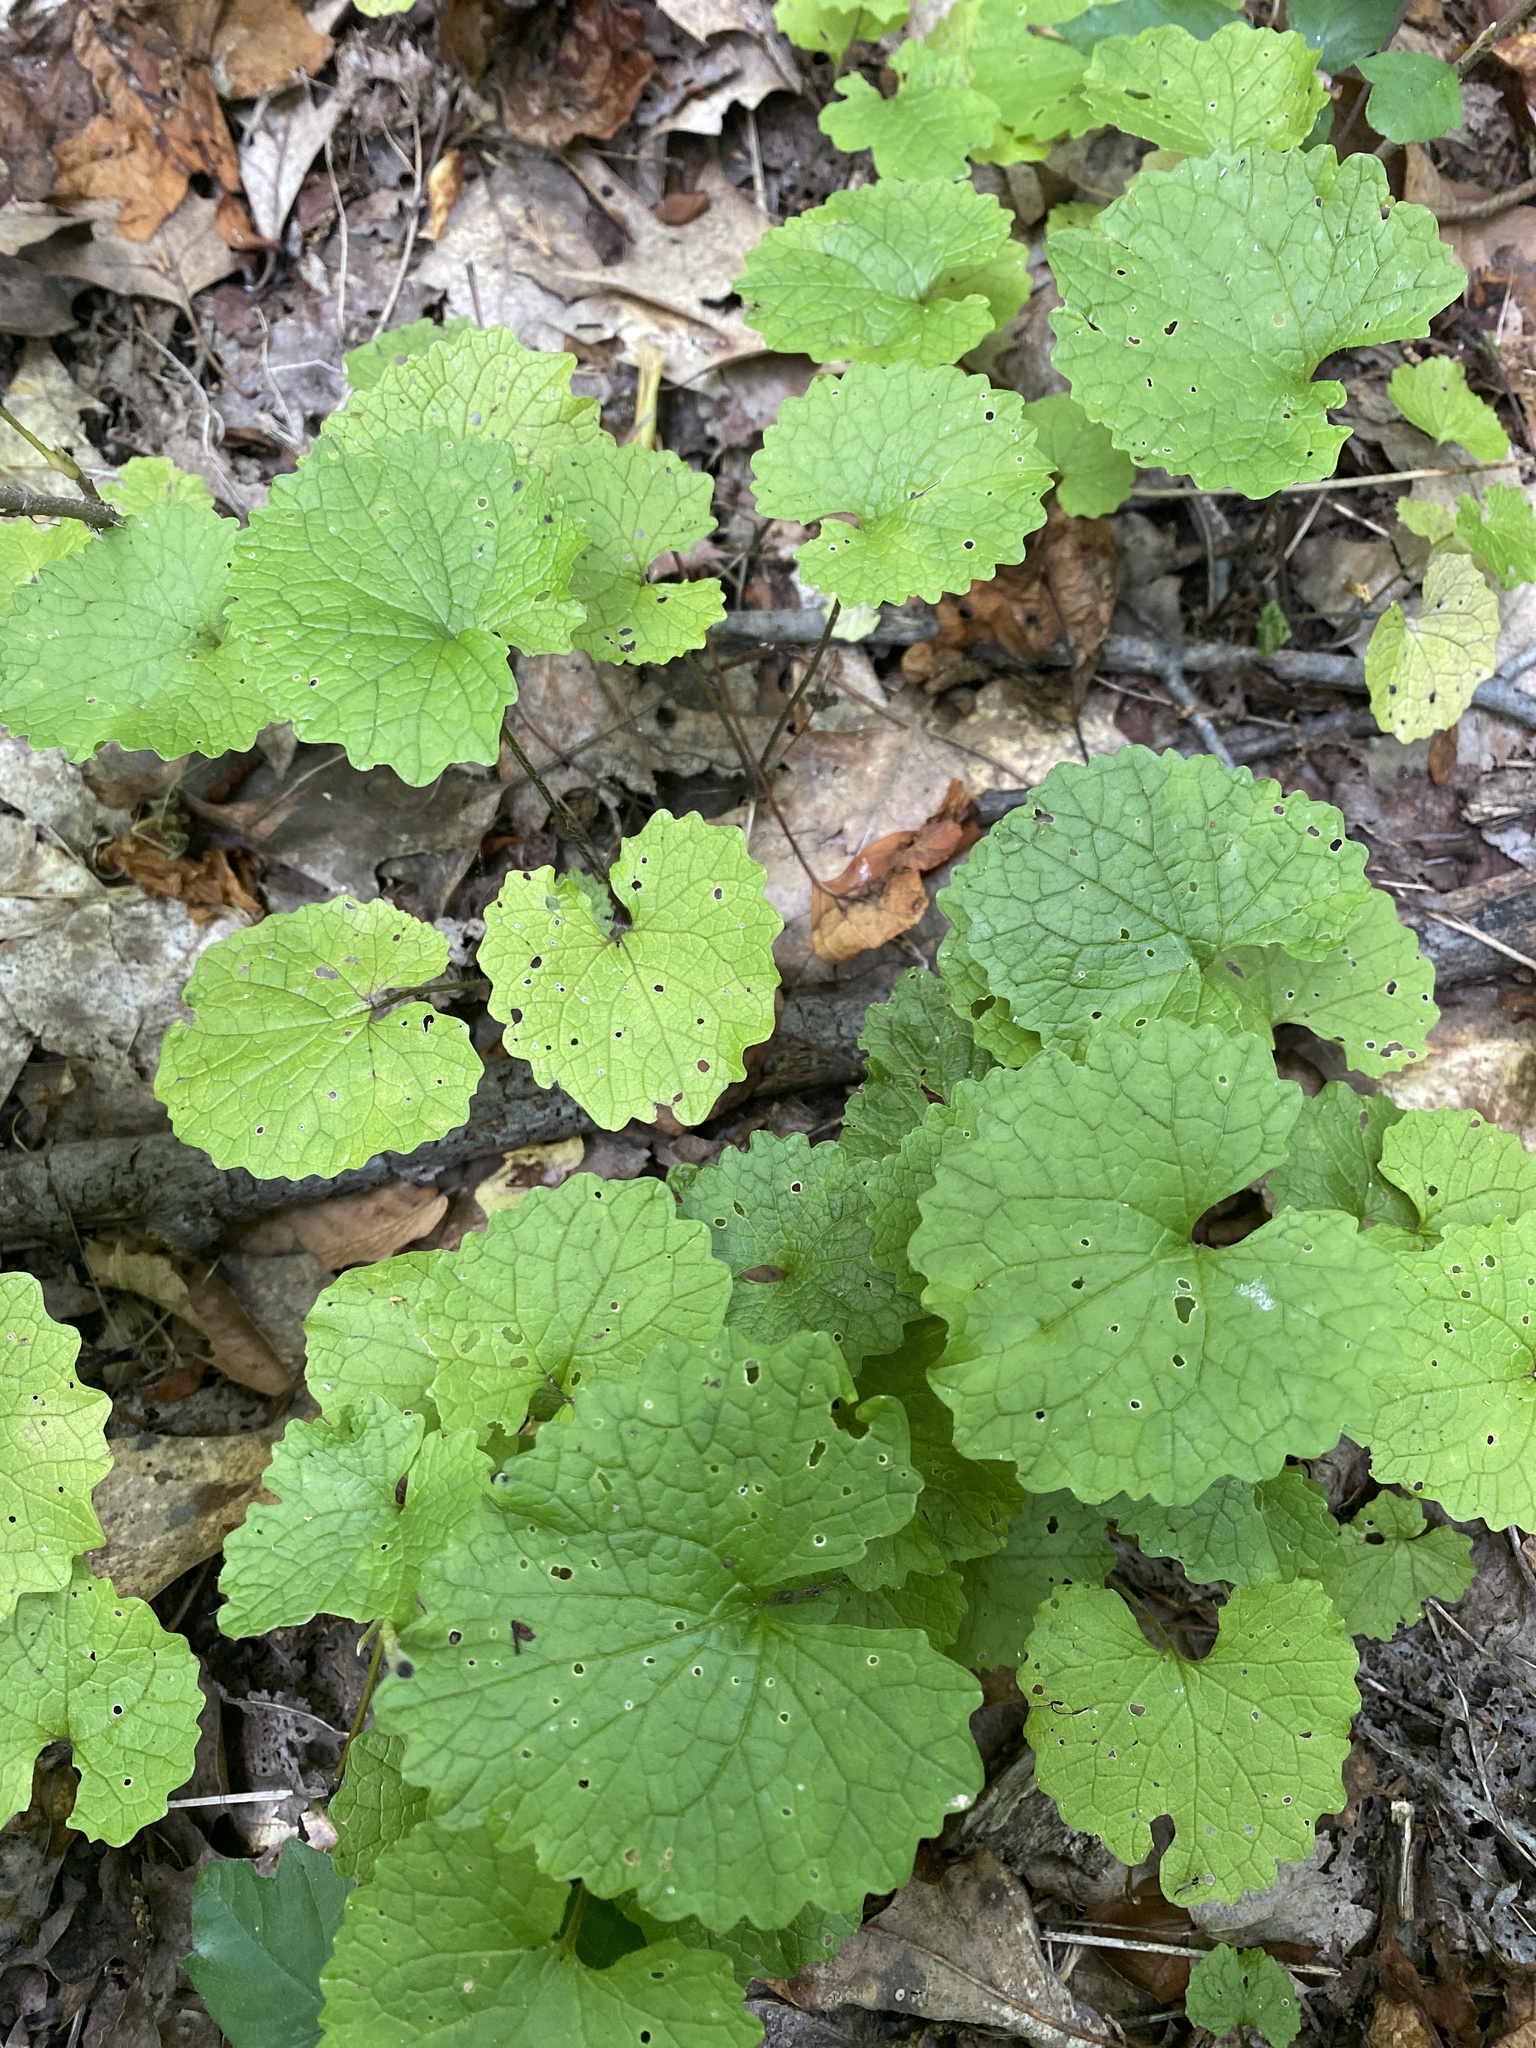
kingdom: Plantae
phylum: Tracheophyta
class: Magnoliopsida
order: Brassicales
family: Brassicaceae
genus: Alliaria
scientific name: Alliaria petiolata
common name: Garlic mustard
